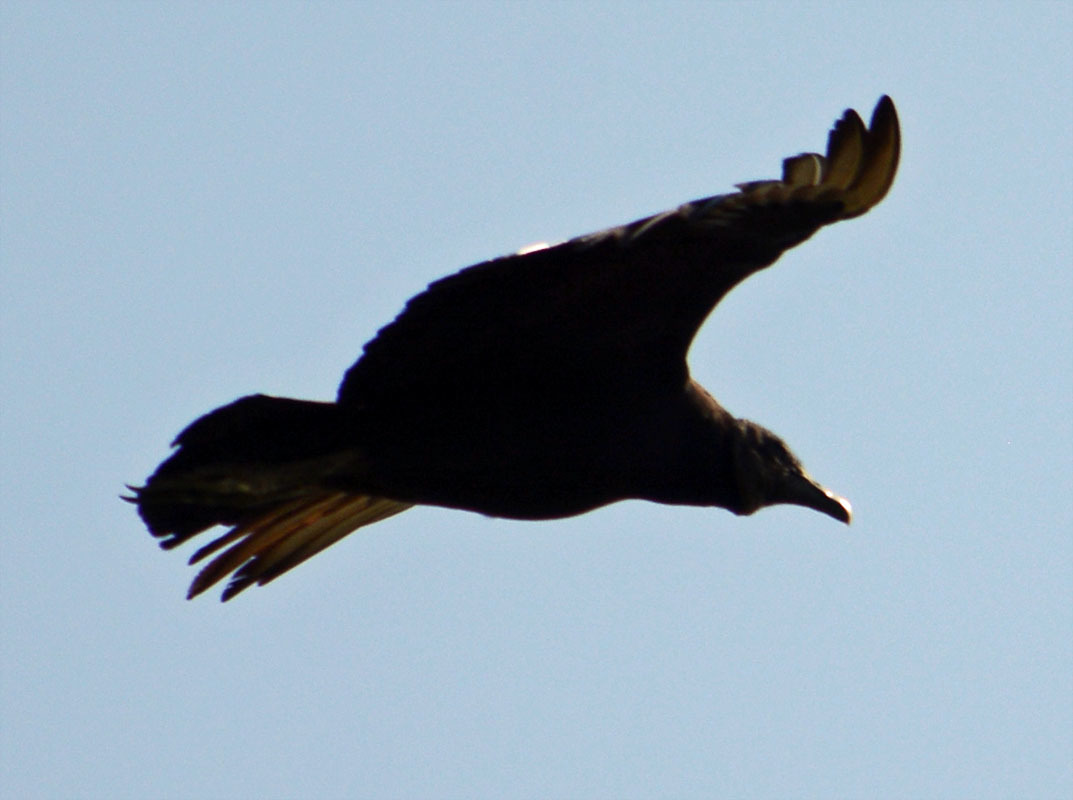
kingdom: Animalia
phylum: Chordata
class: Aves
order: Accipitriformes
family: Cathartidae
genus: Coragyps
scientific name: Coragyps atratus
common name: Black vulture
